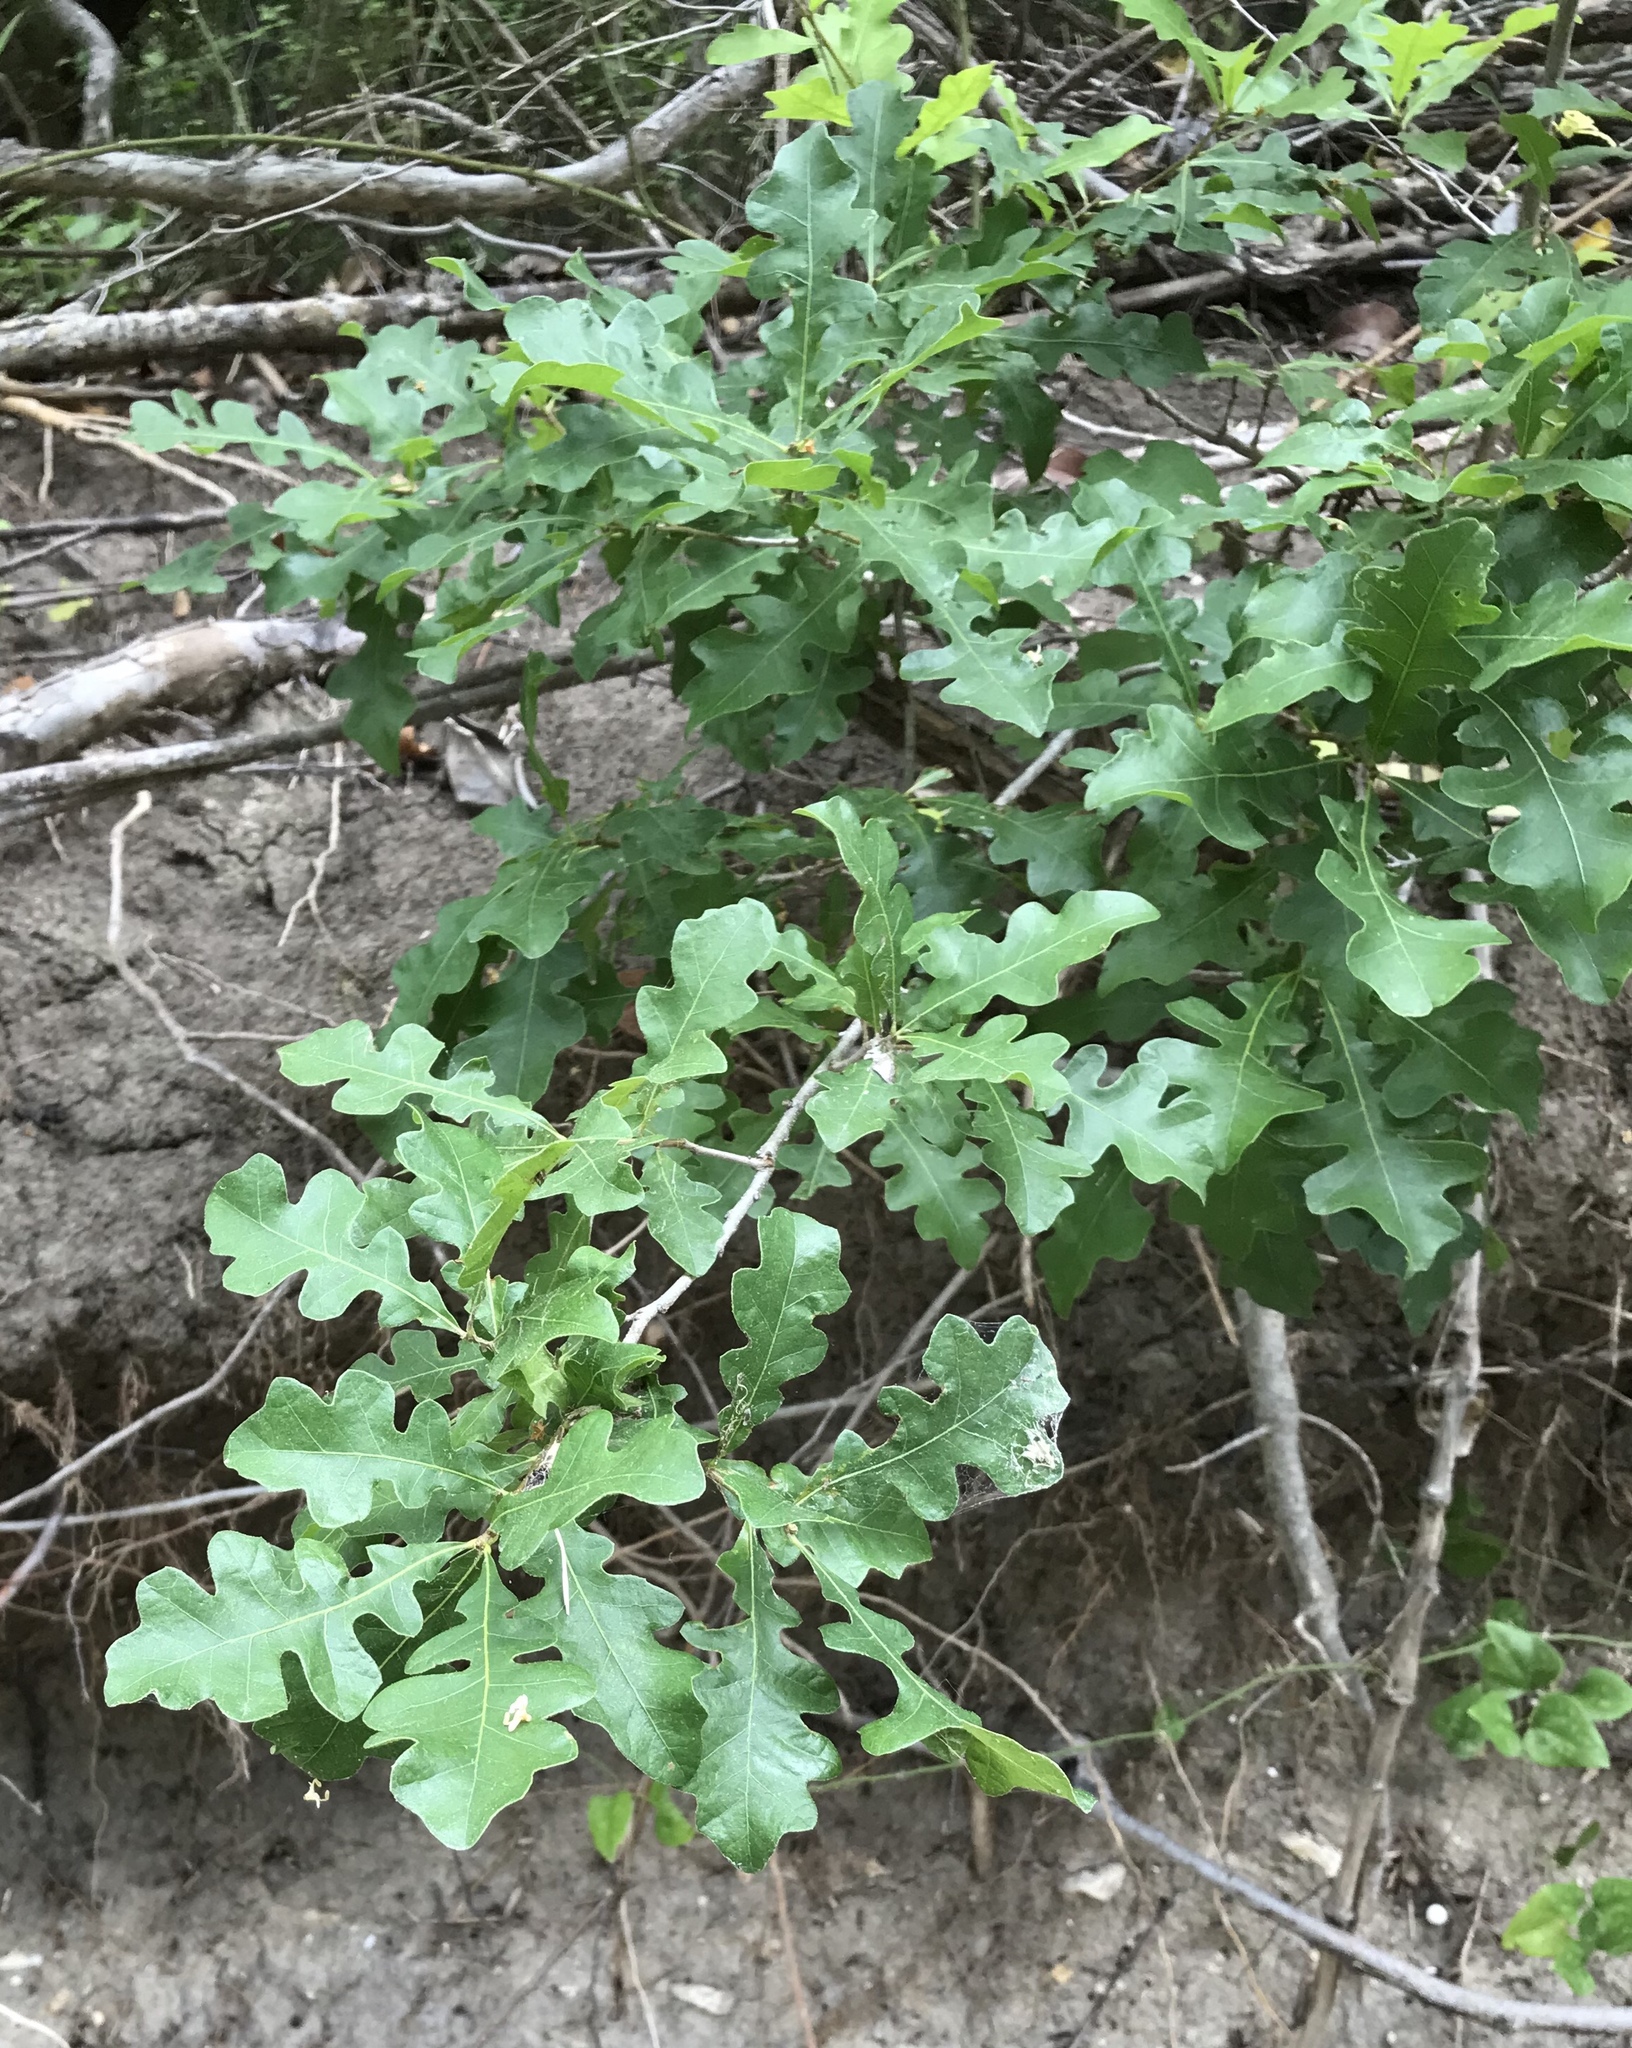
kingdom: Plantae
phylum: Tracheophyta
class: Magnoliopsida
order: Fagales
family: Fagaceae
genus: Quercus
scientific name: Quercus sinuata
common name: Durand oak
